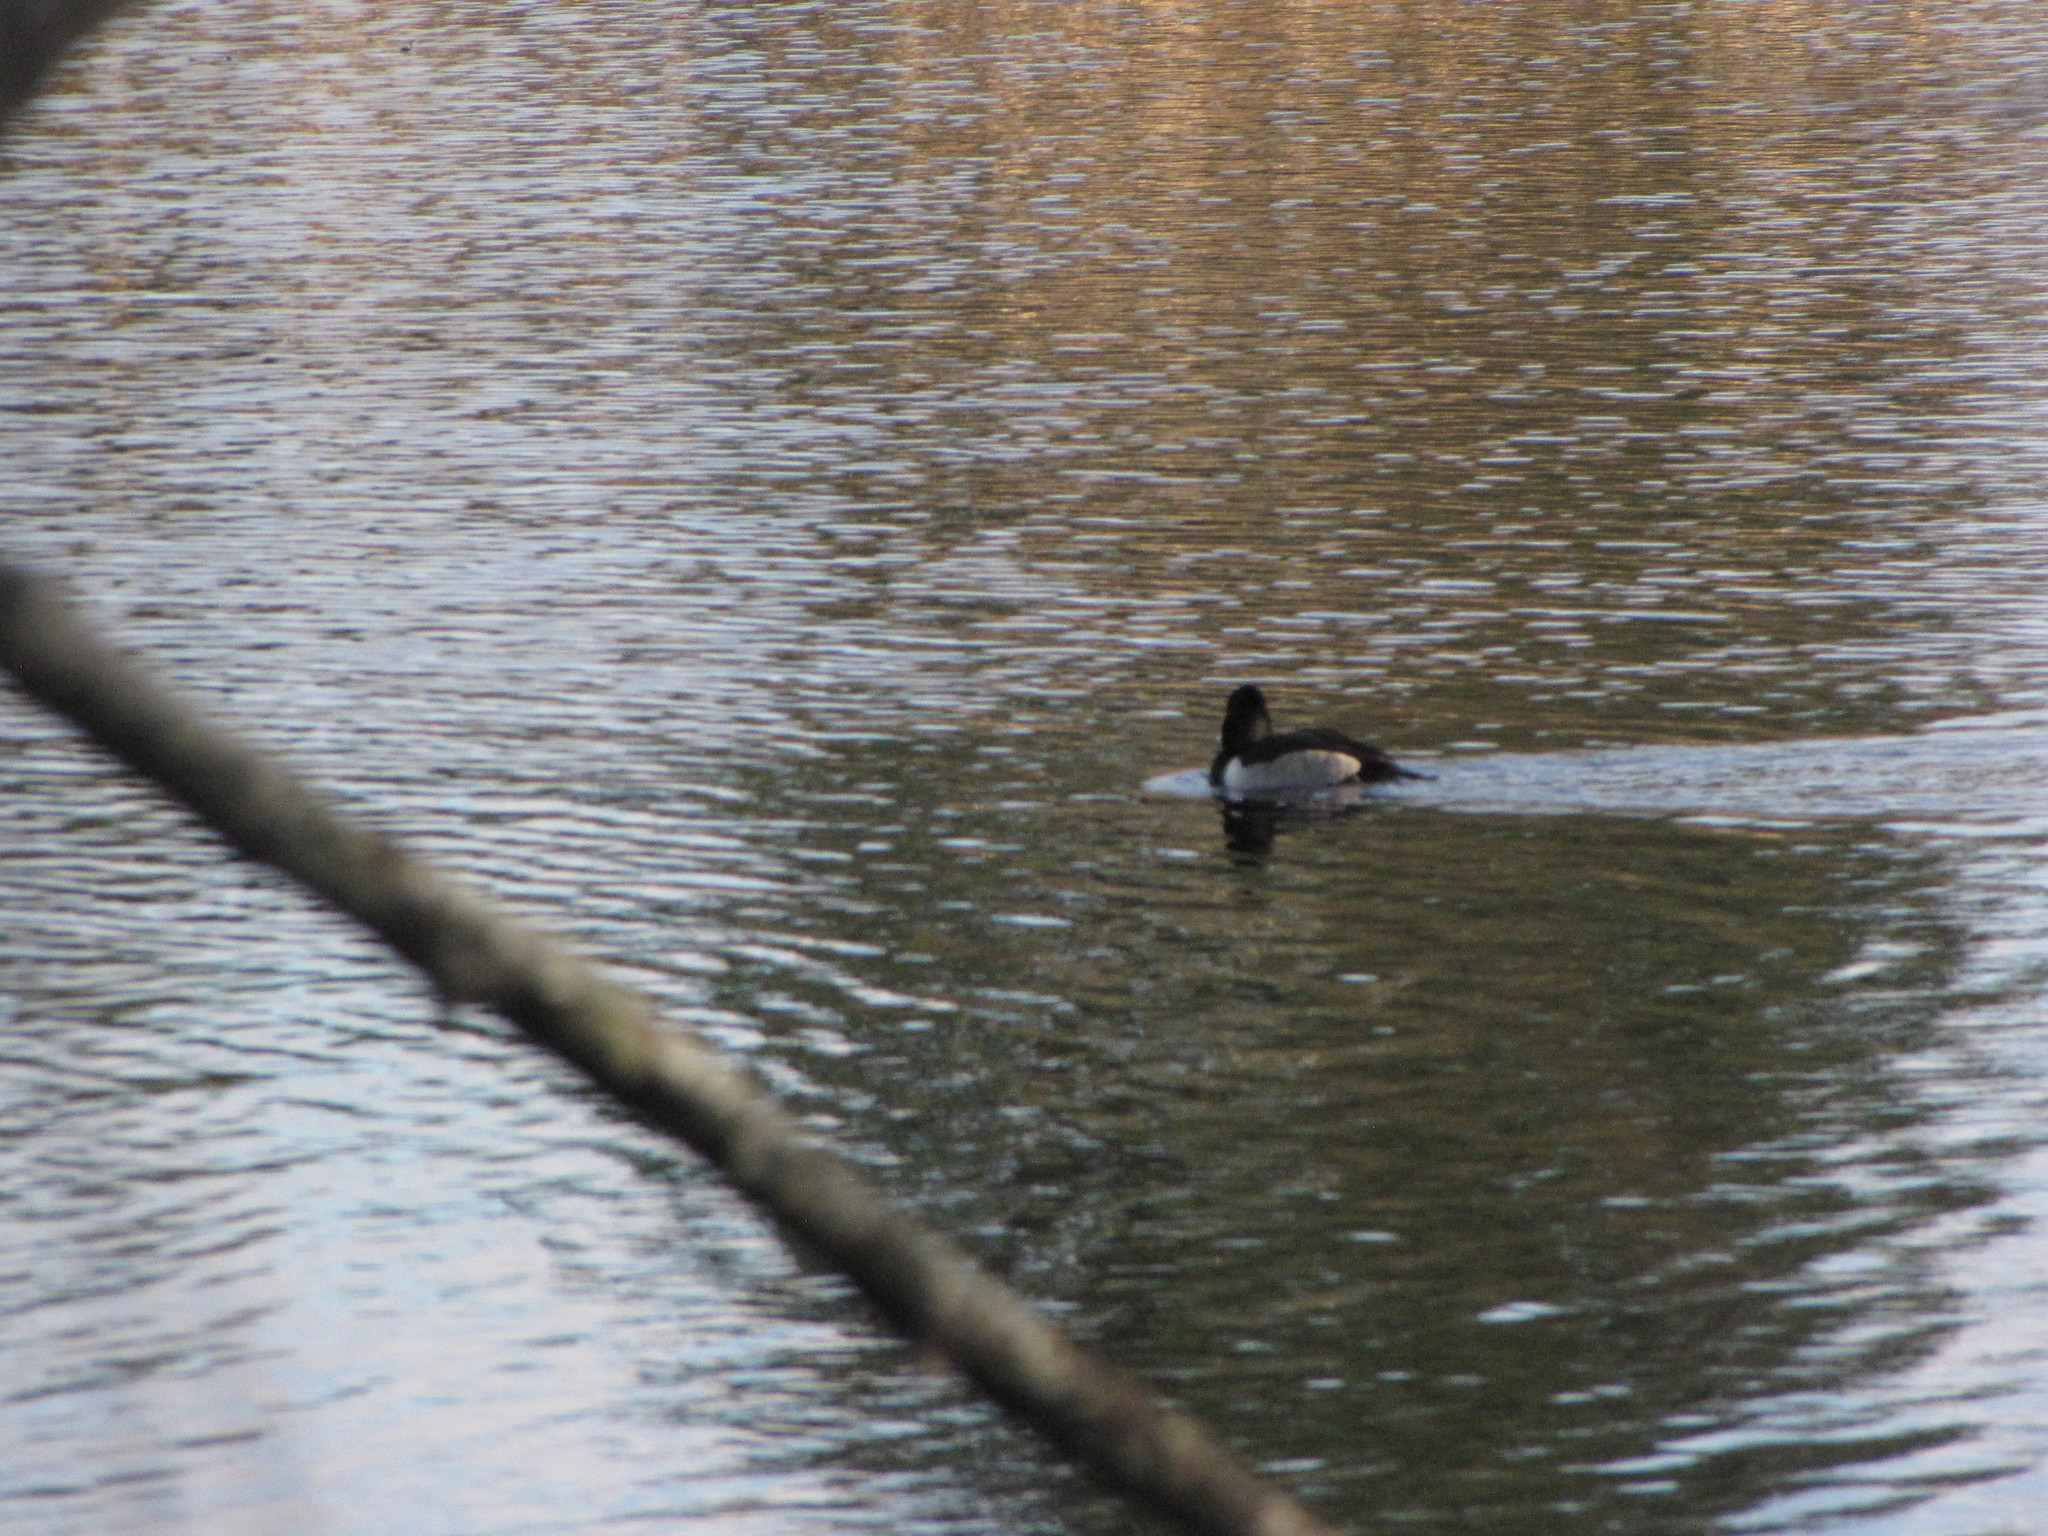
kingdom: Animalia
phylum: Chordata
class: Aves
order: Anseriformes
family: Anatidae
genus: Aythya
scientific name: Aythya collaris
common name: Ring-necked duck
